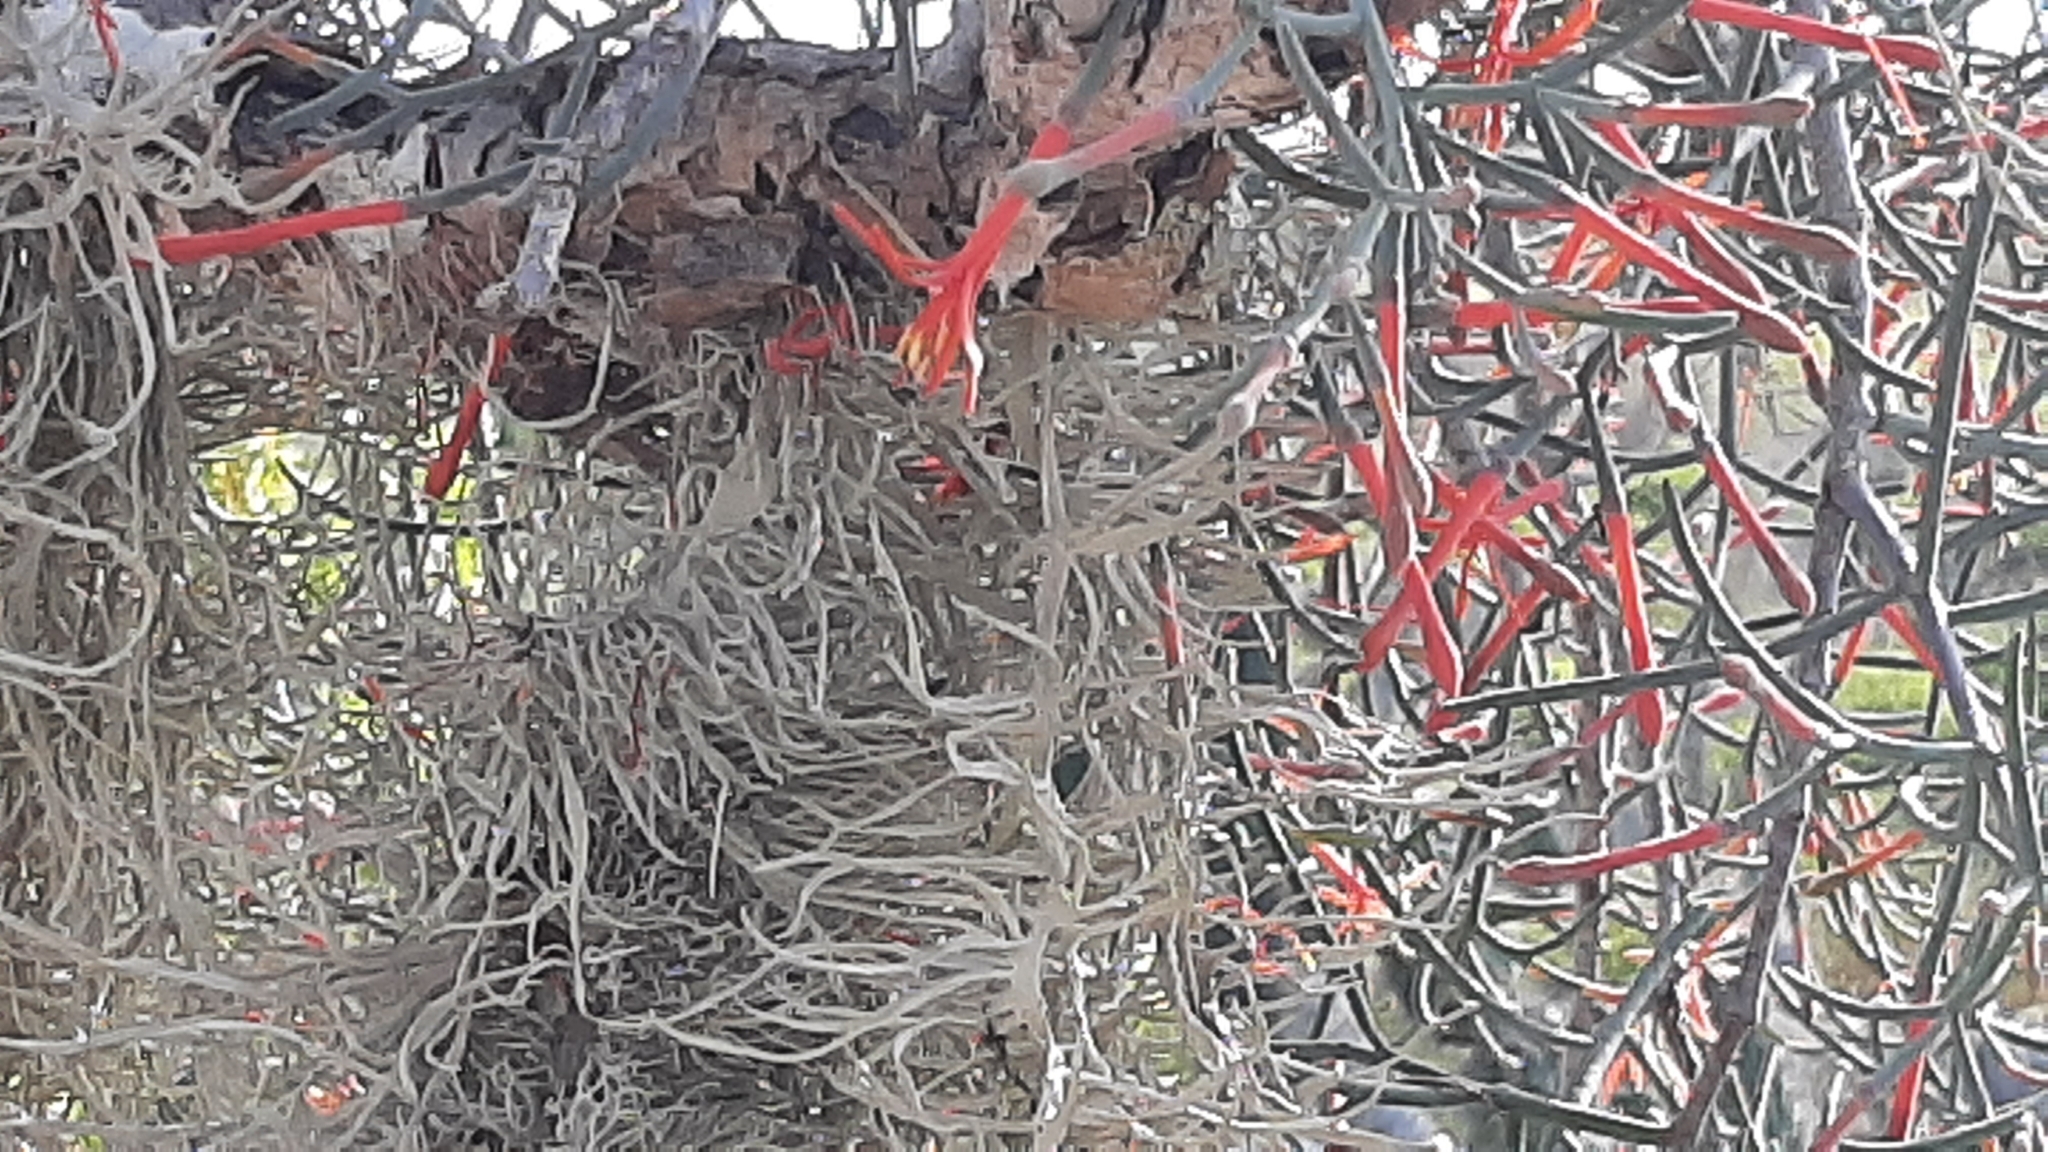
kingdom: Plantae
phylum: Tracheophyta
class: Magnoliopsida
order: Santalales
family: Loranthaceae
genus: Psittacanthus
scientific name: Psittacanthus sonorae
